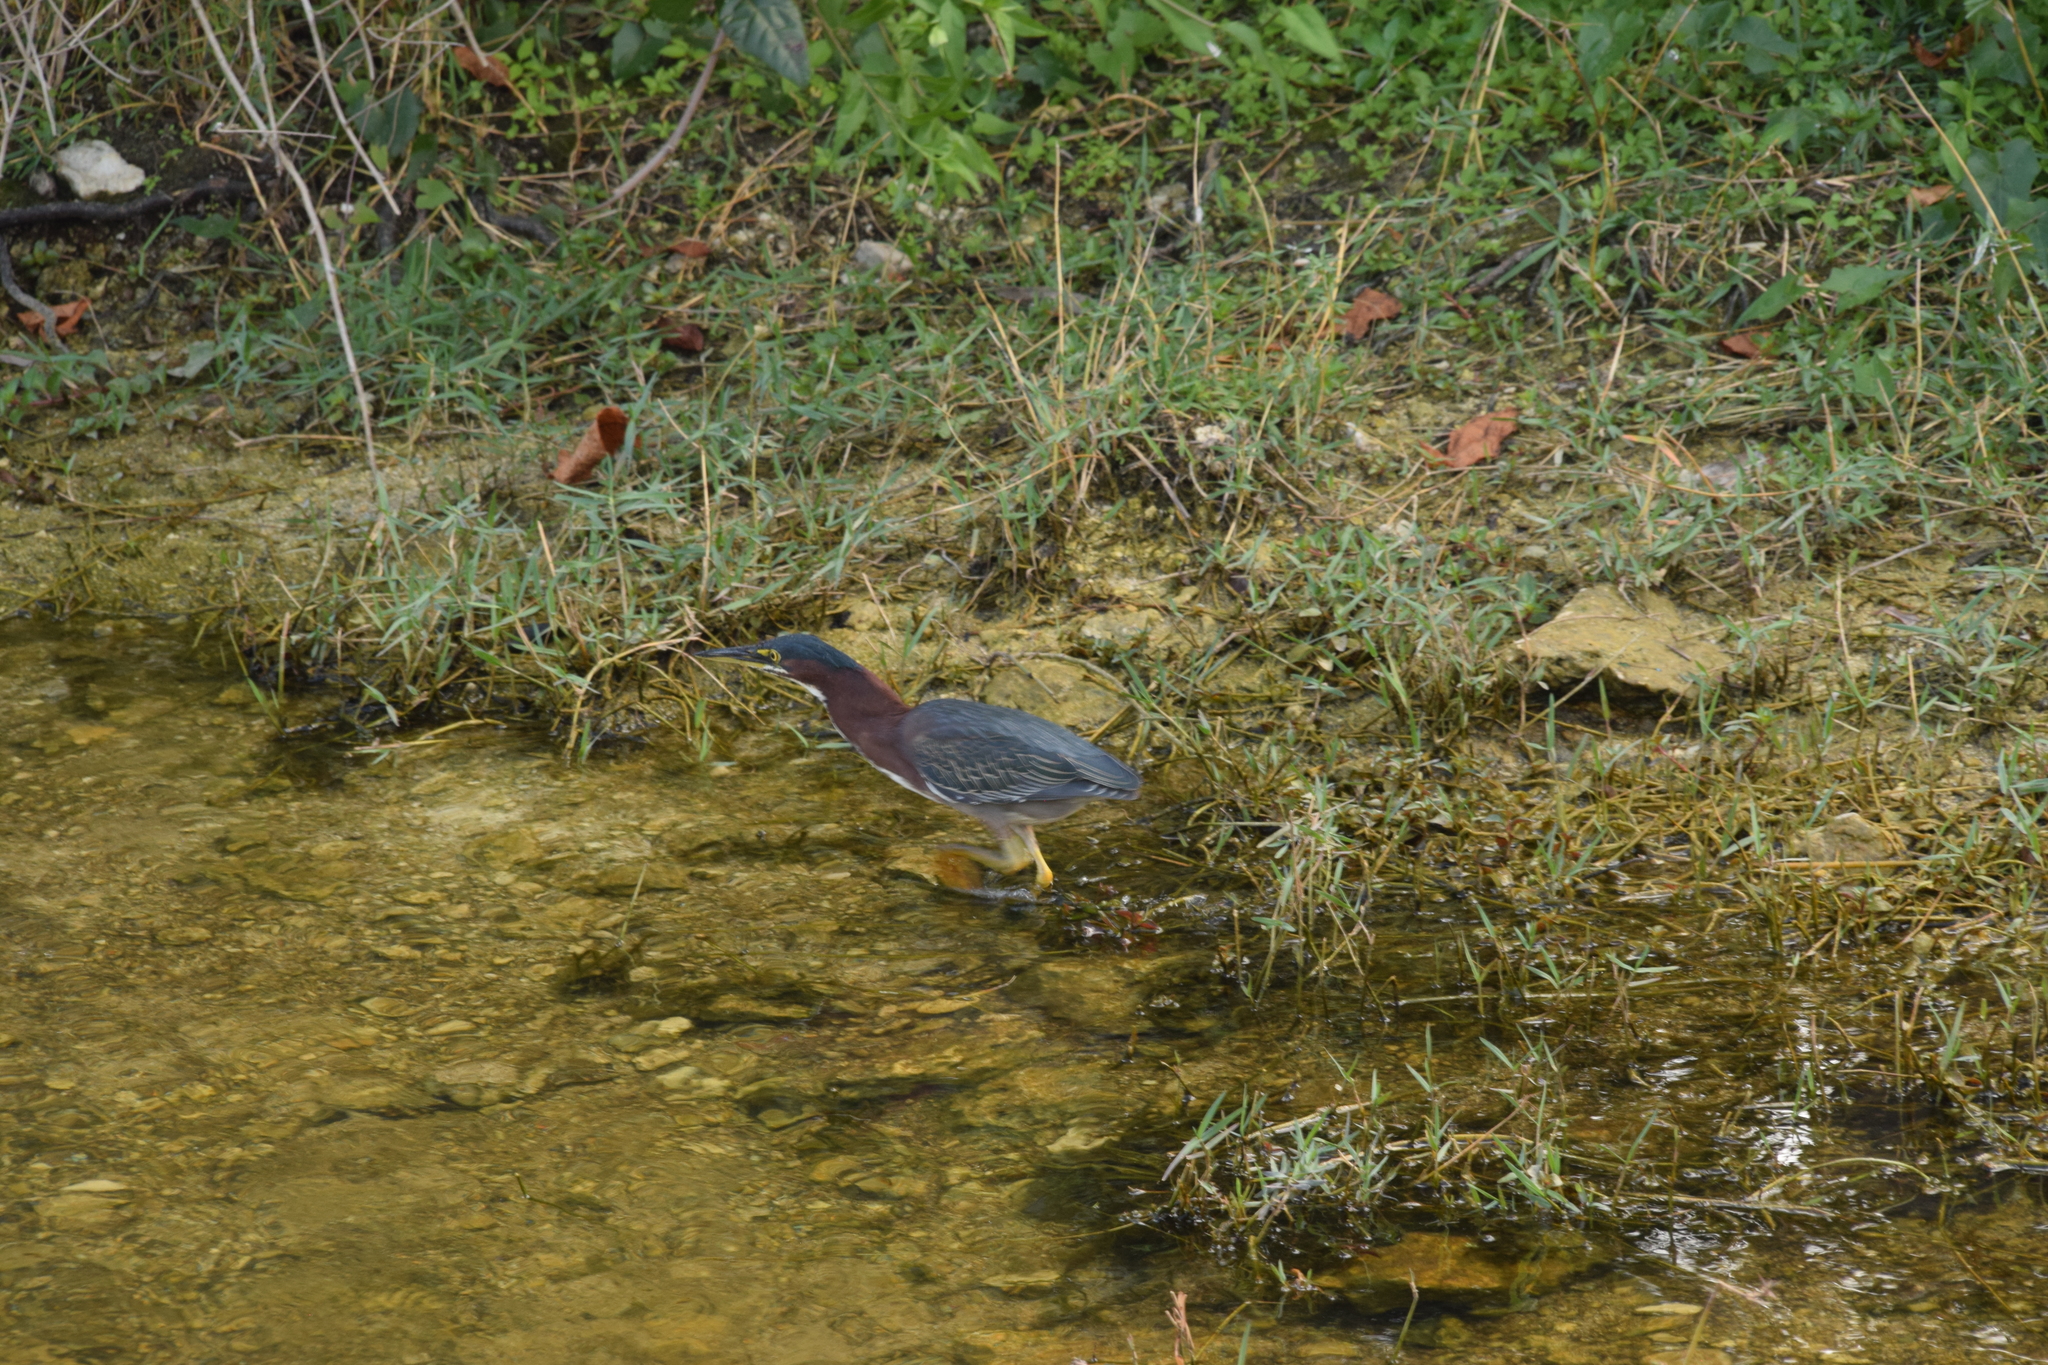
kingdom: Animalia
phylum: Chordata
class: Aves
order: Pelecaniformes
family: Ardeidae
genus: Butorides
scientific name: Butorides virescens
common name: Green heron
